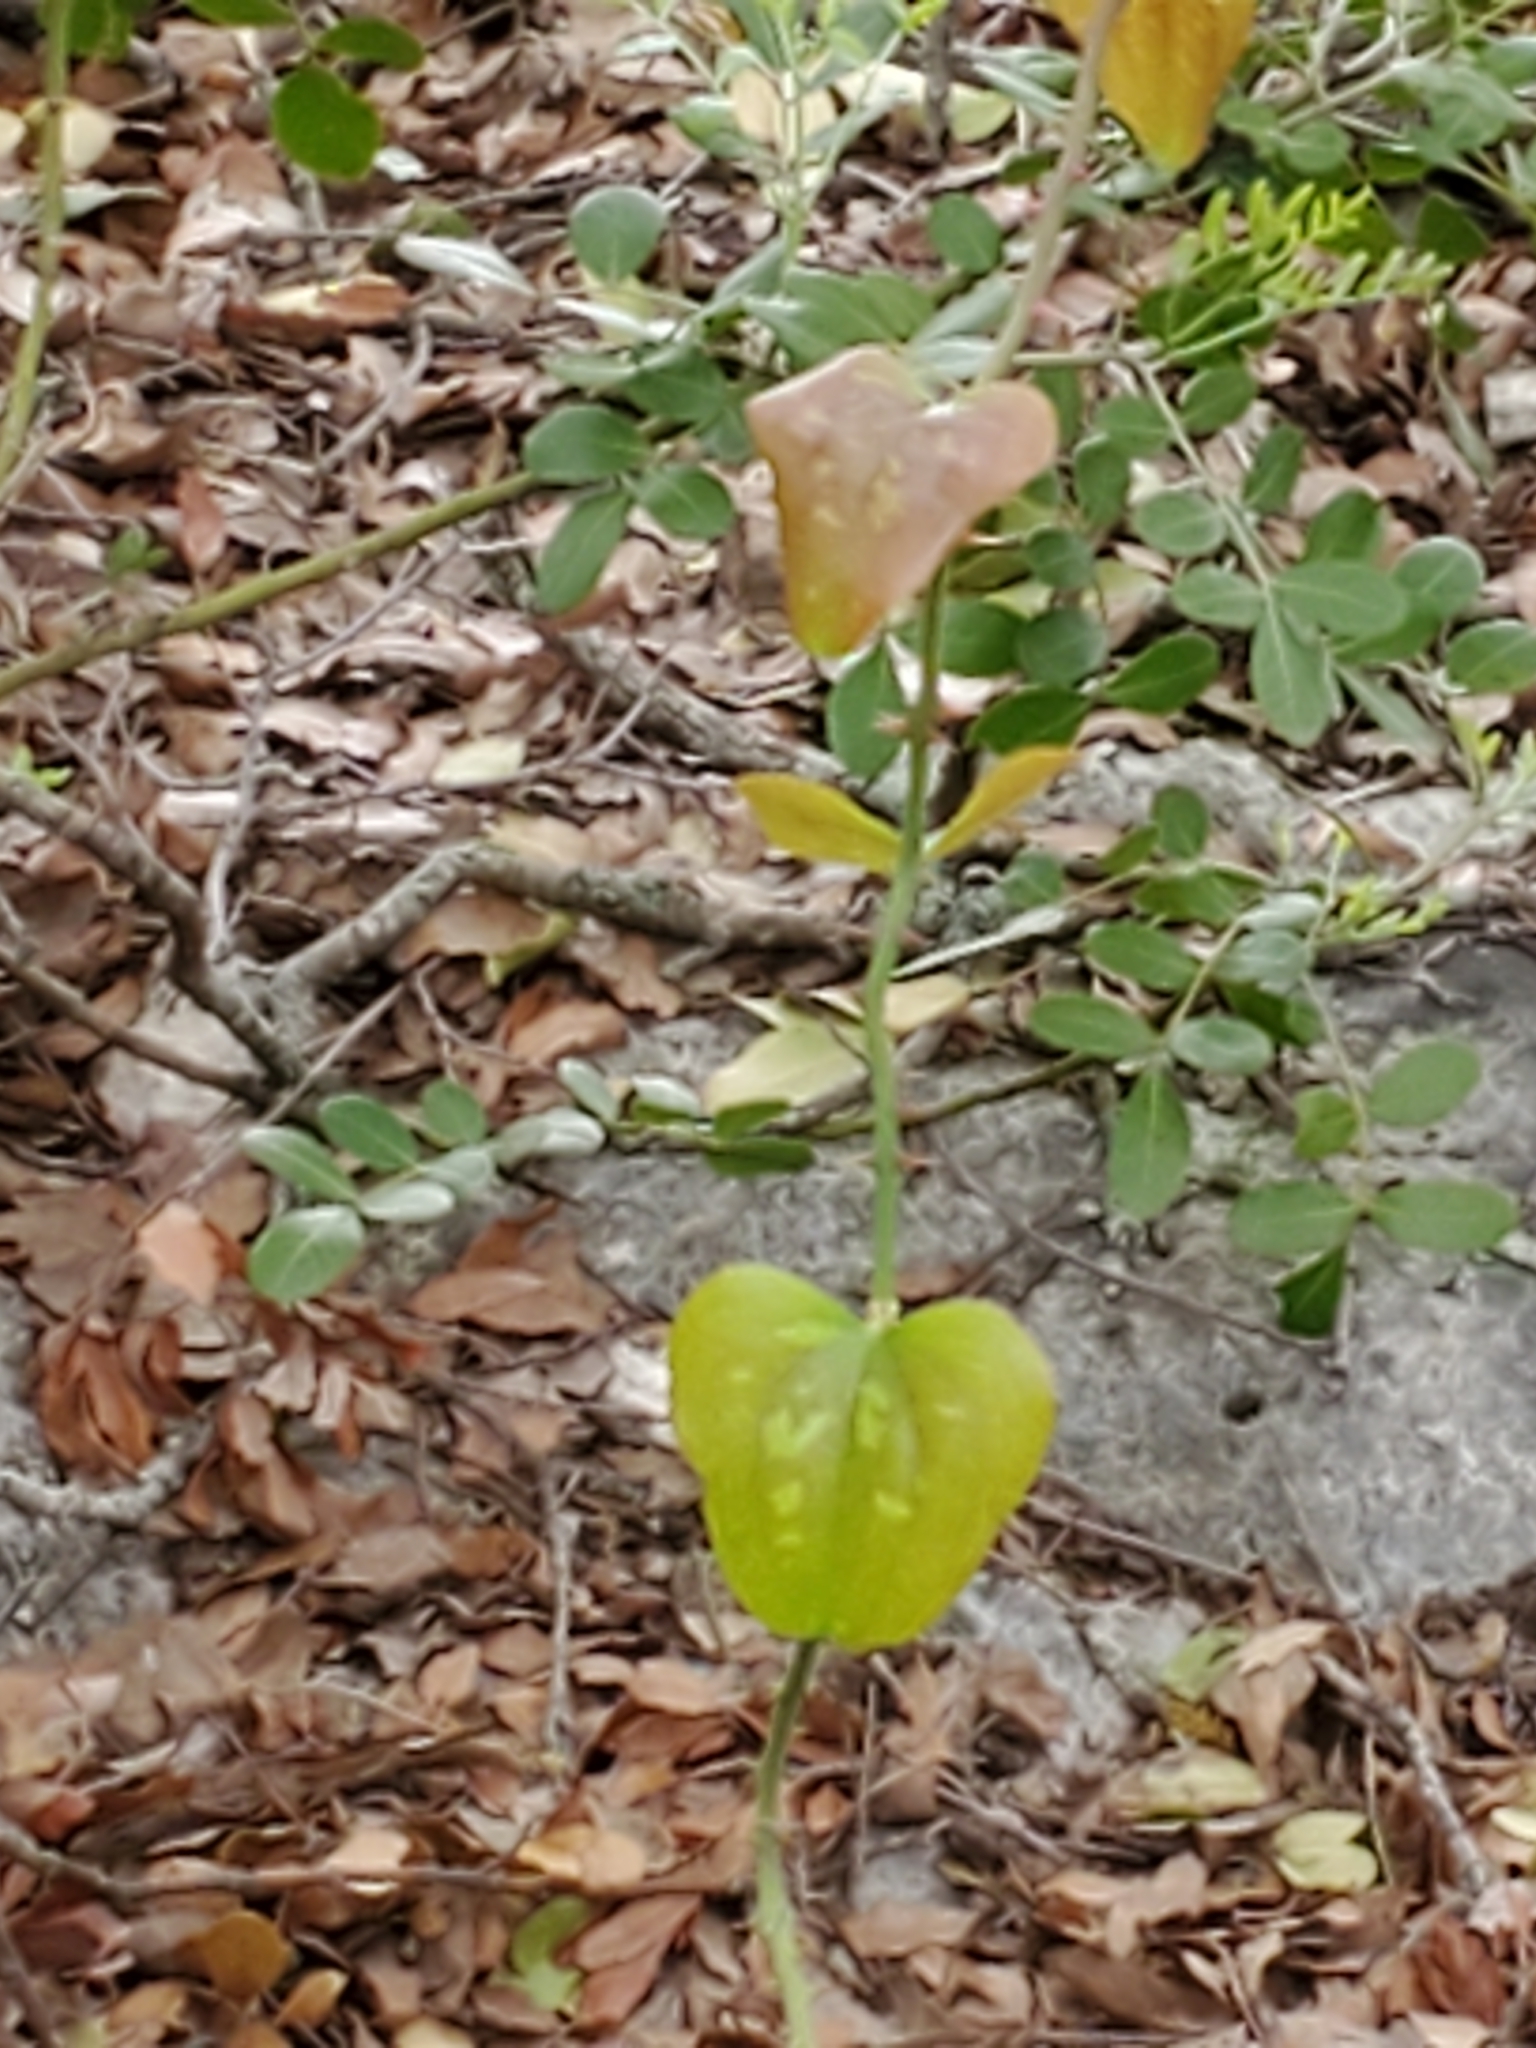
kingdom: Plantae
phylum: Tracheophyta
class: Liliopsida
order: Liliales
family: Smilacaceae
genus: Smilax
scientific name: Smilax bona-nox
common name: Catbrier
